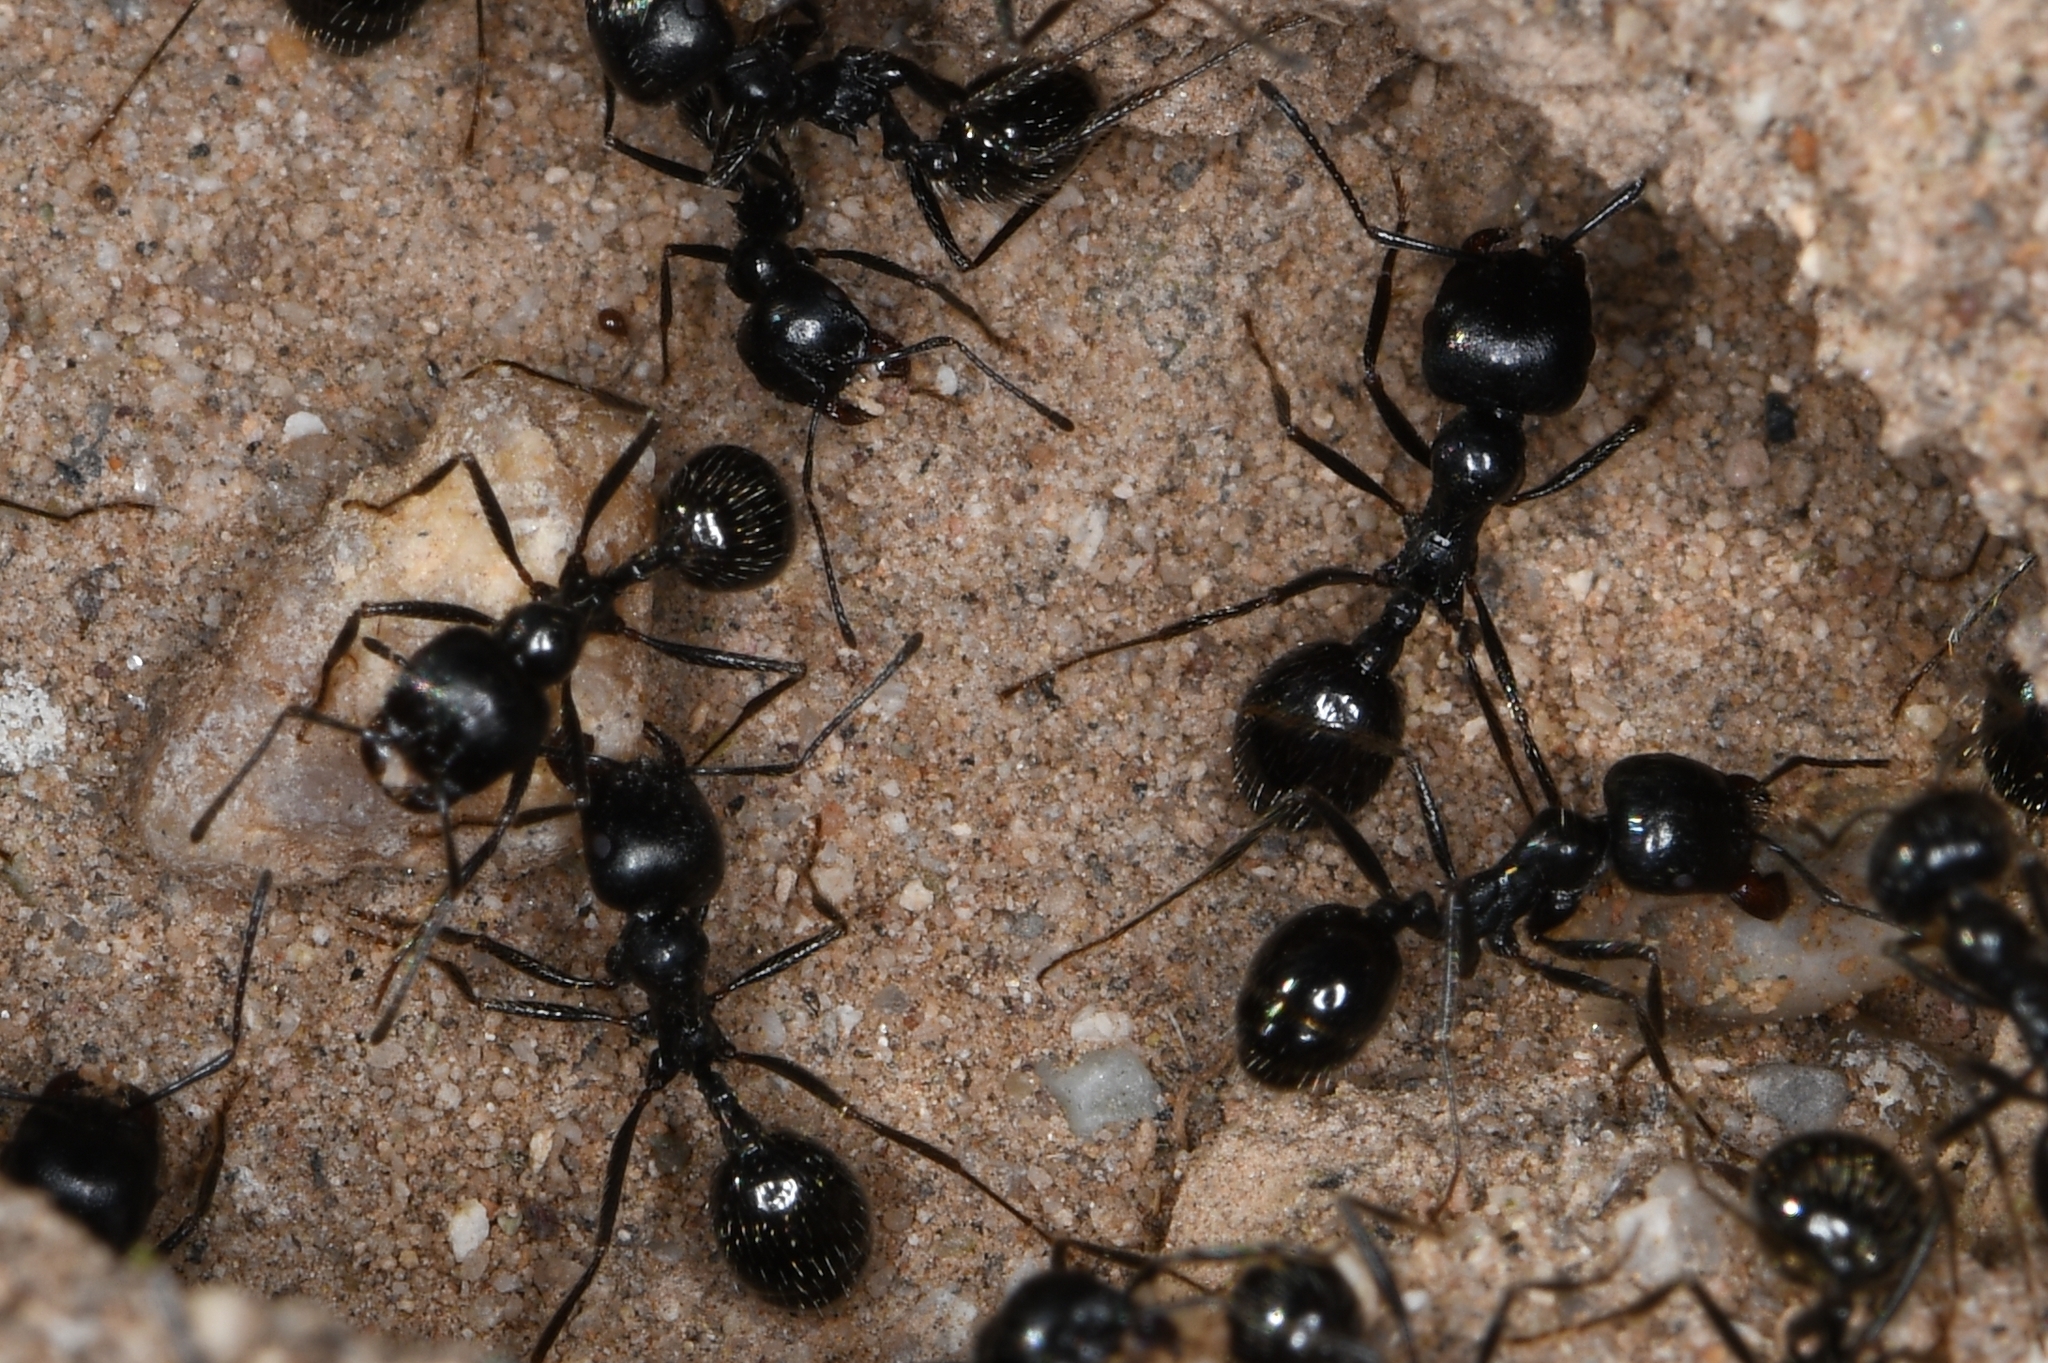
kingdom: Animalia
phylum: Arthropoda
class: Insecta
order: Hymenoptera
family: Formicidae
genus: Messor
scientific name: Messor pergandei
